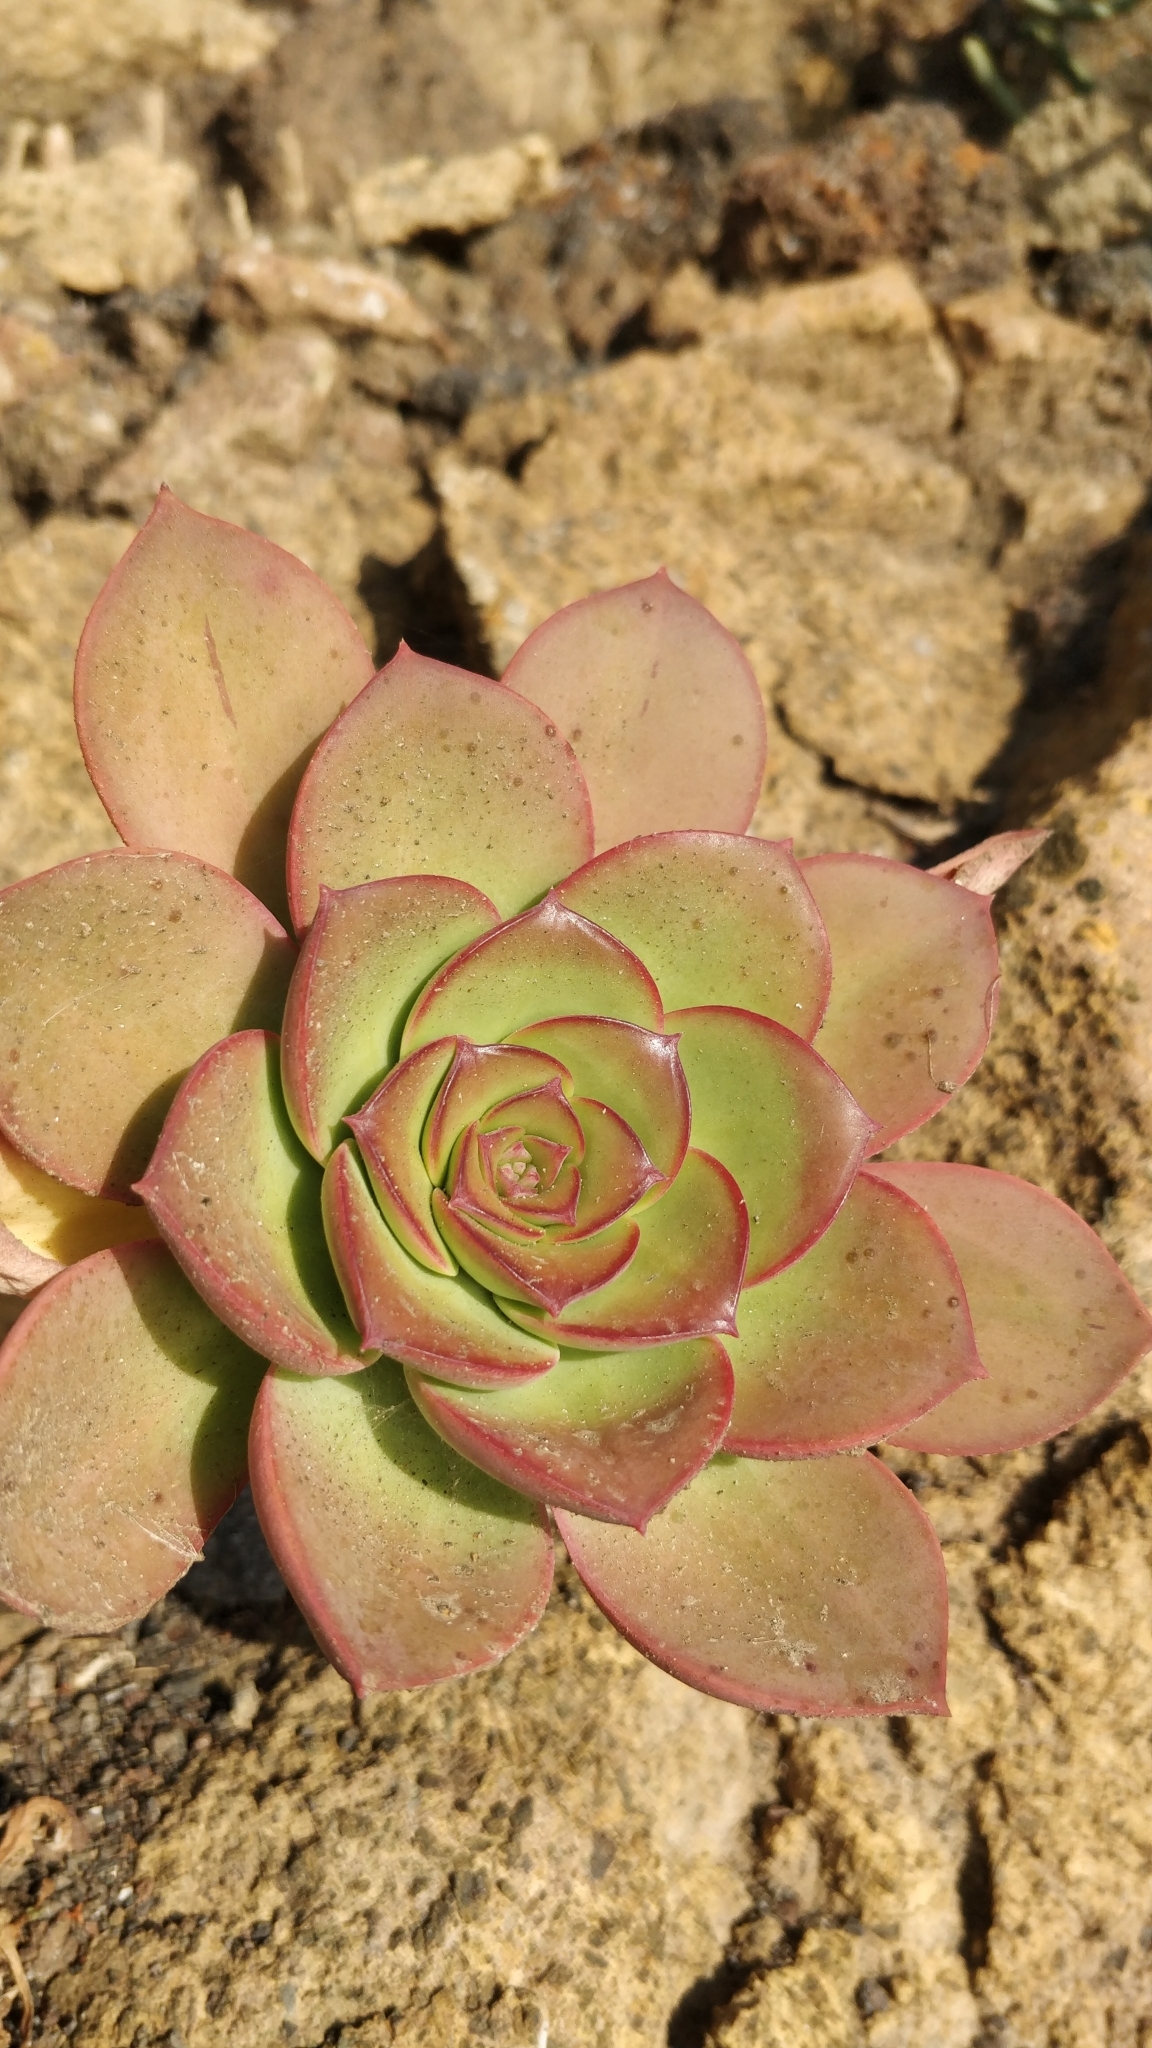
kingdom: Plantae
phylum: Tracheophyta
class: Magnoliopsida
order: Saxifragales
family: Crassulaceae
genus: Aeonium
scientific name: Aeonium urbicum
